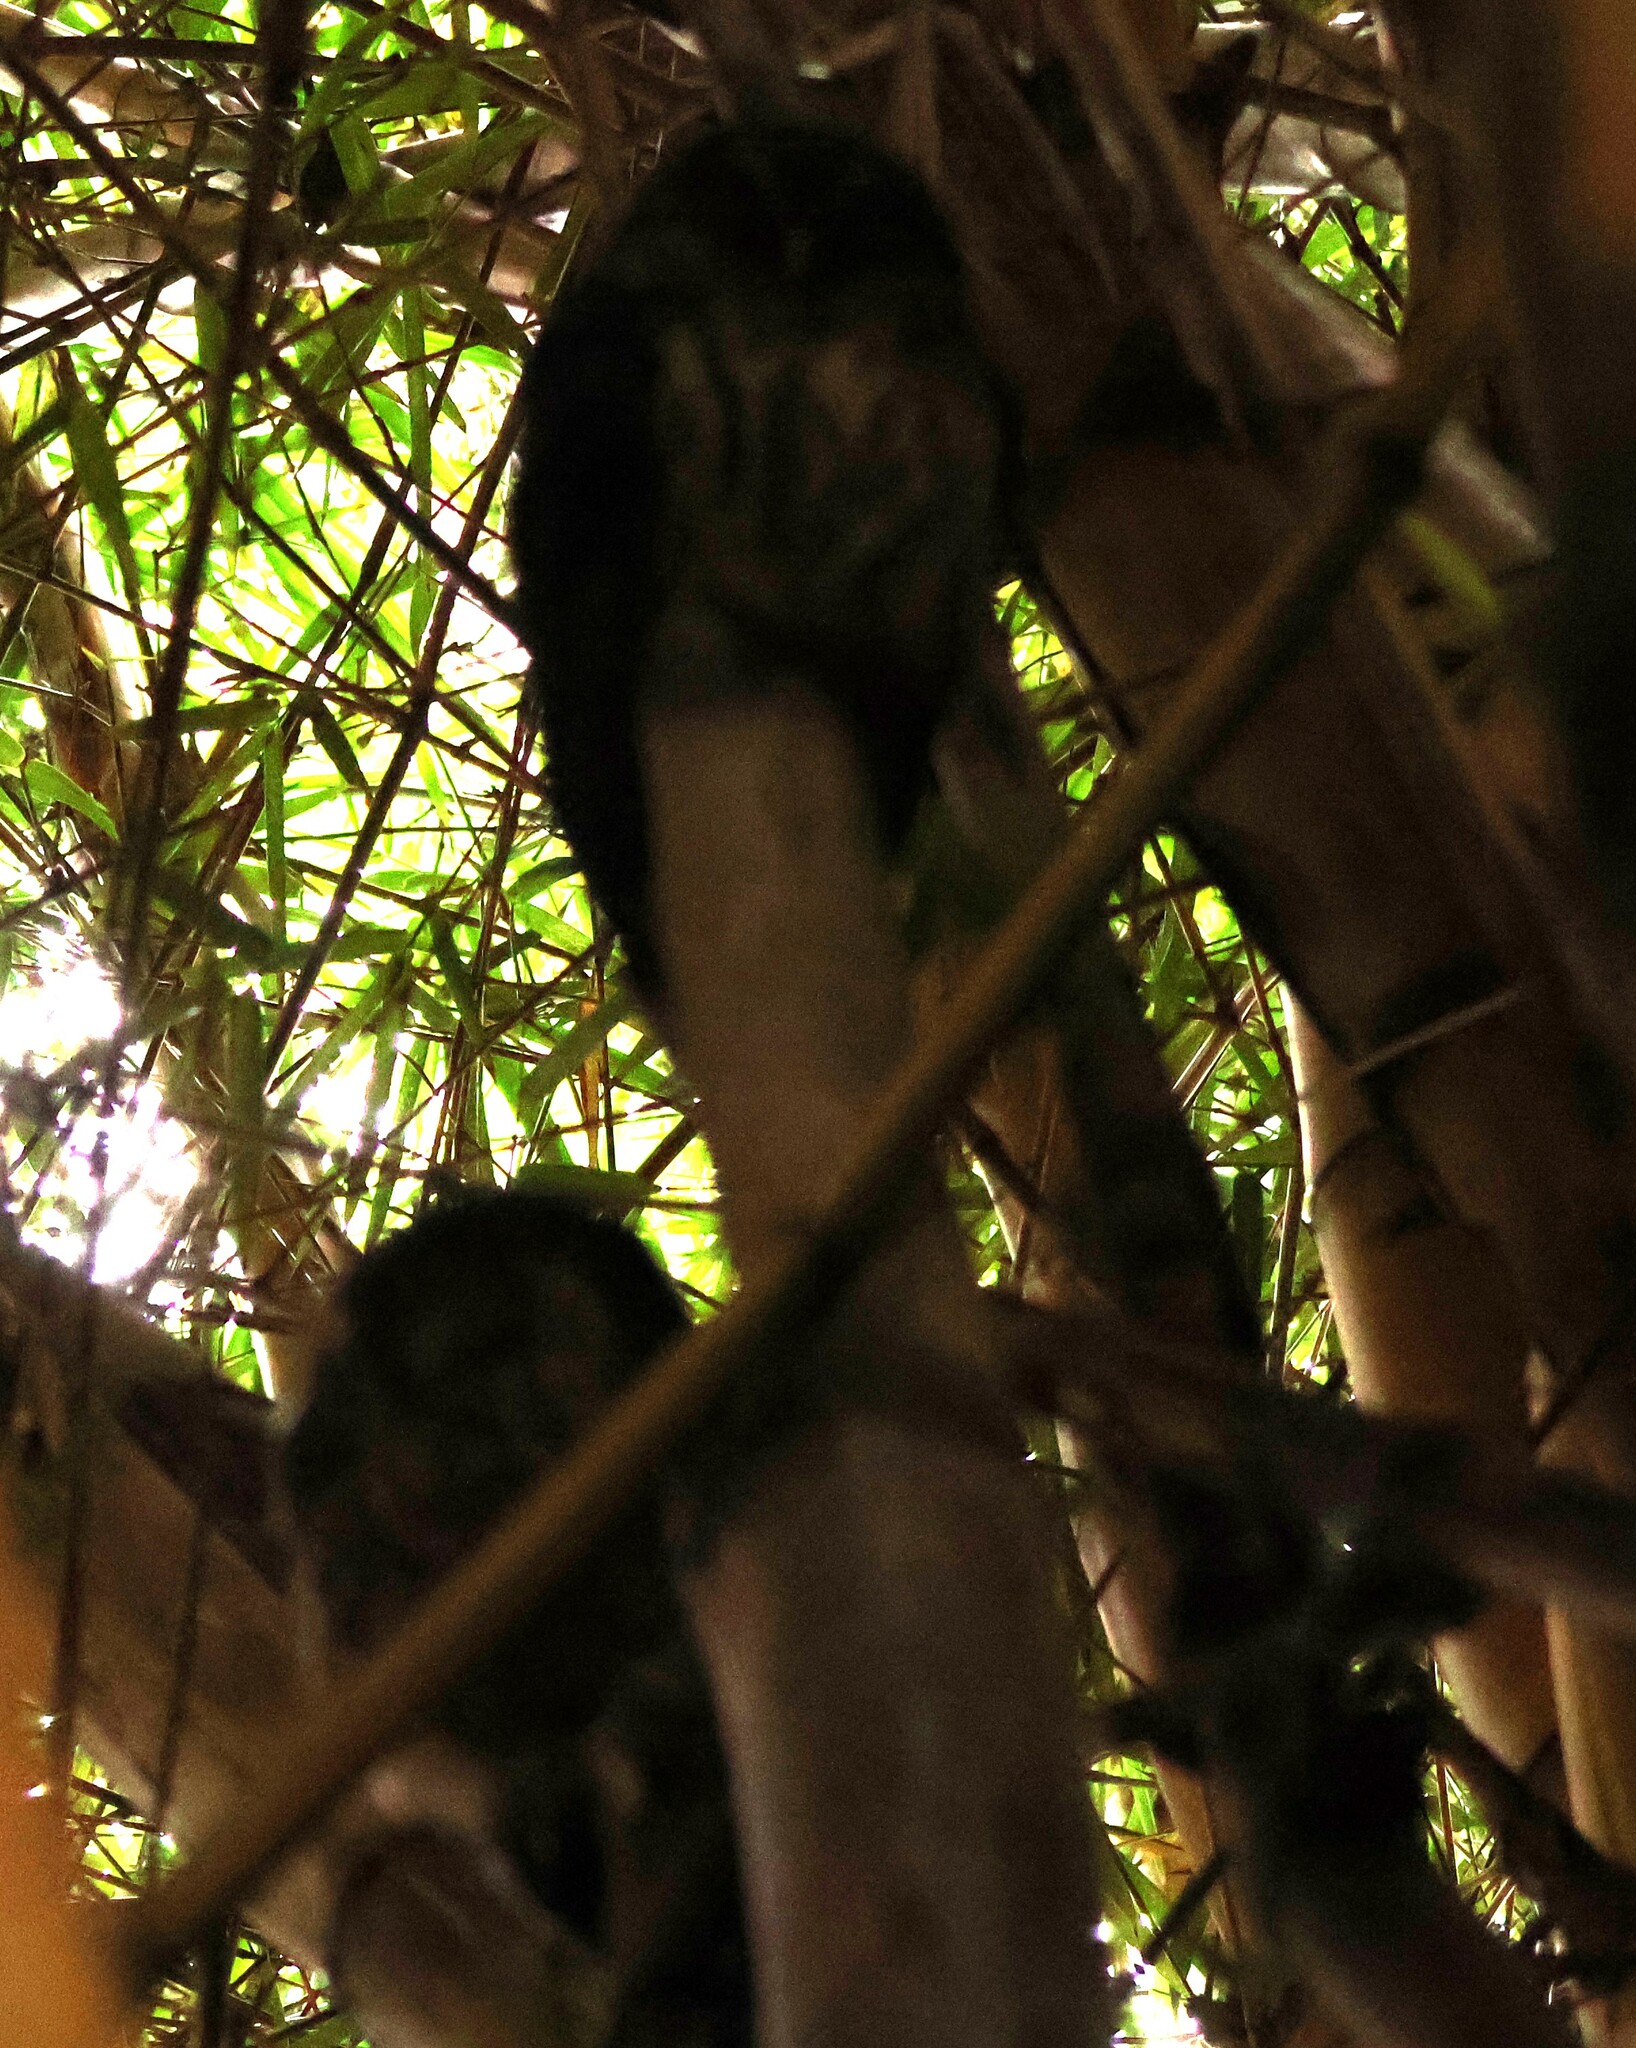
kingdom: Animalia
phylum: Chordata
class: Aves
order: Strigiformes
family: Strigidae
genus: Strix
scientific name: Strix virgata
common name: Mottled owl
